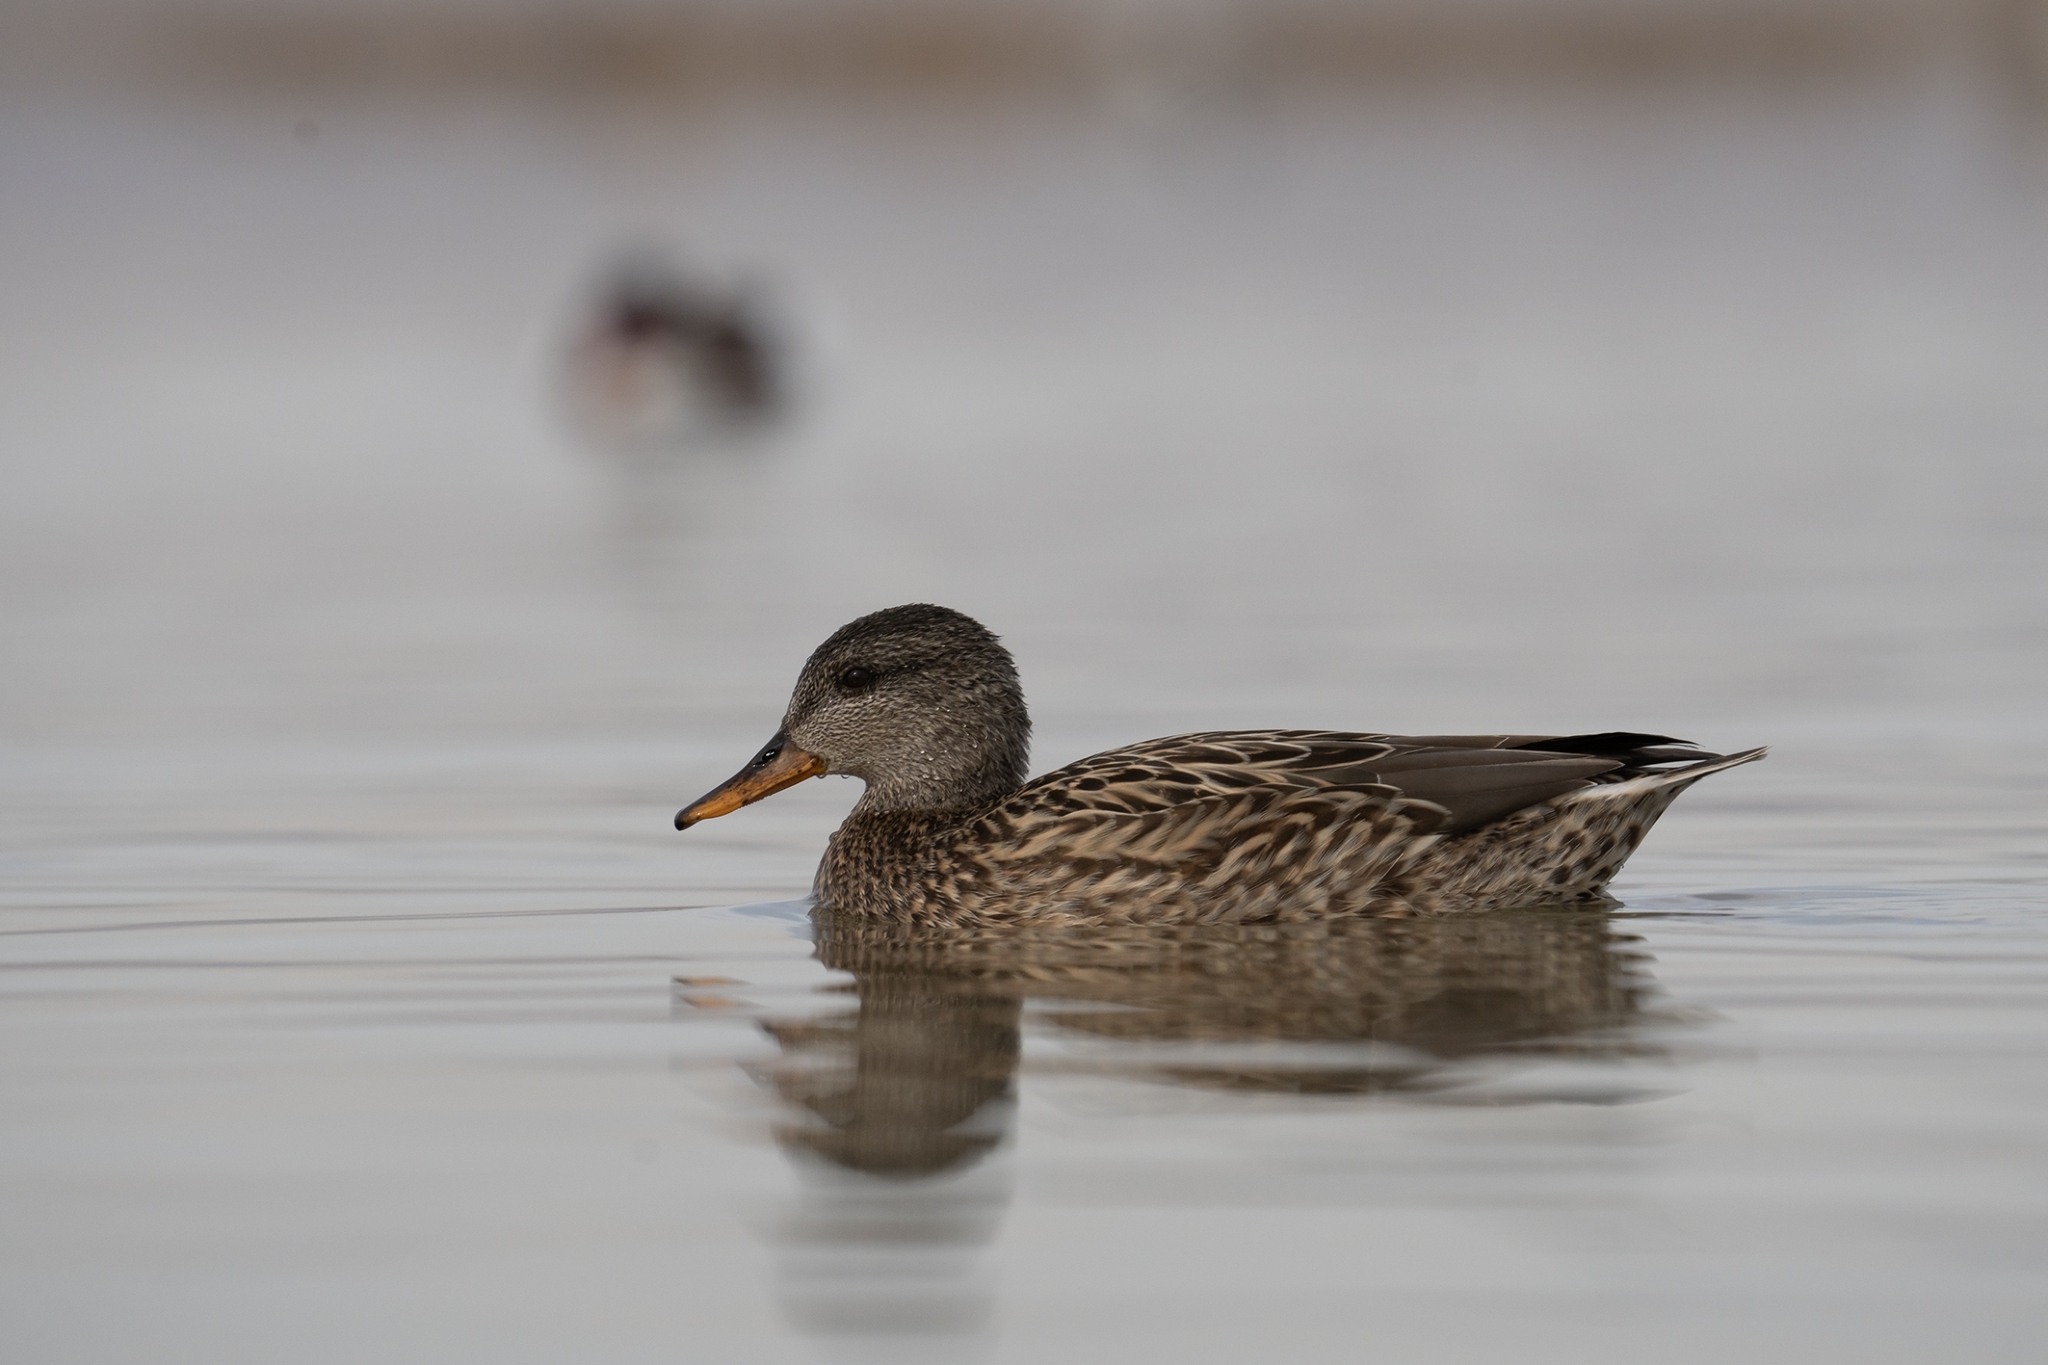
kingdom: Animalia
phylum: Chordata
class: Aves
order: Anseriformes
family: Anatidae
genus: Mareca
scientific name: Mareca strepera
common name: Gadwall
